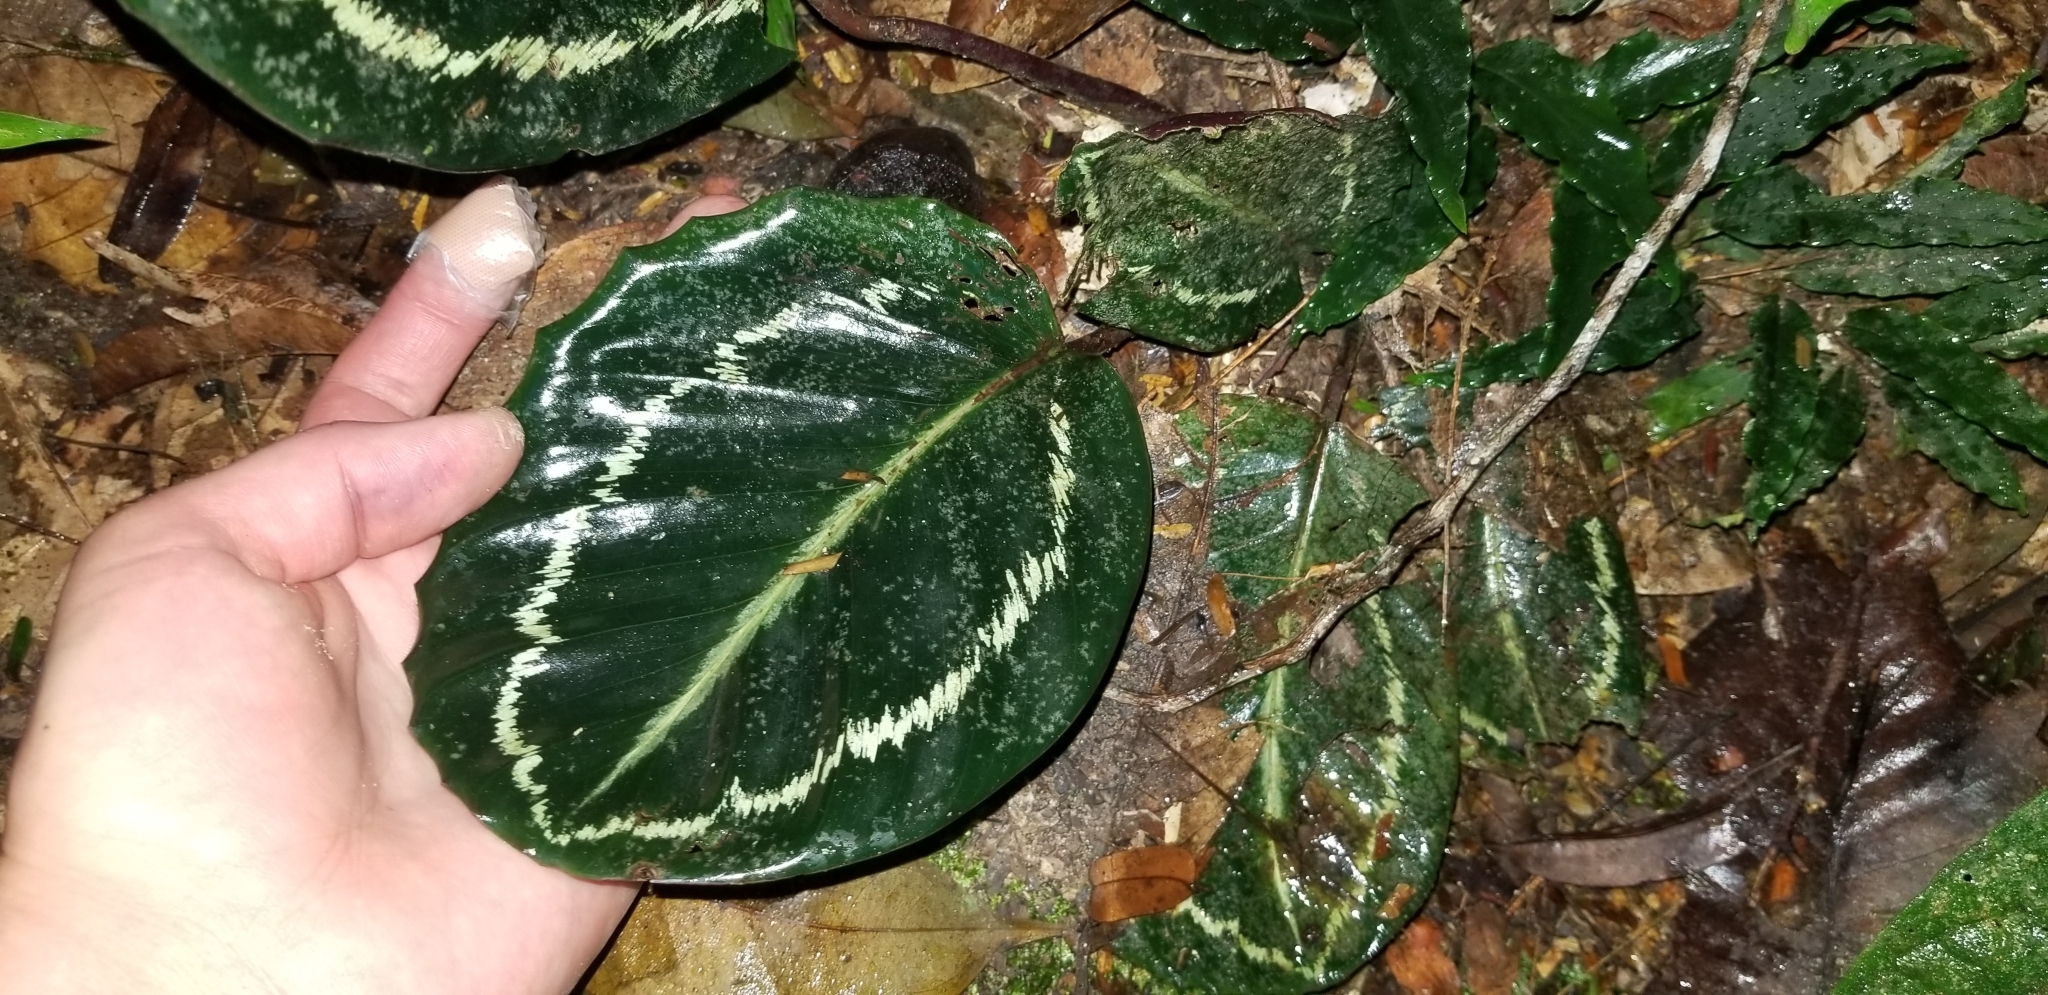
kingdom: Plantae
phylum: Tracheophyta
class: Liliopsida
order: Zingiberales
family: Marantaceae
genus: Goeppertia
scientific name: Goeppertia roseopicta
